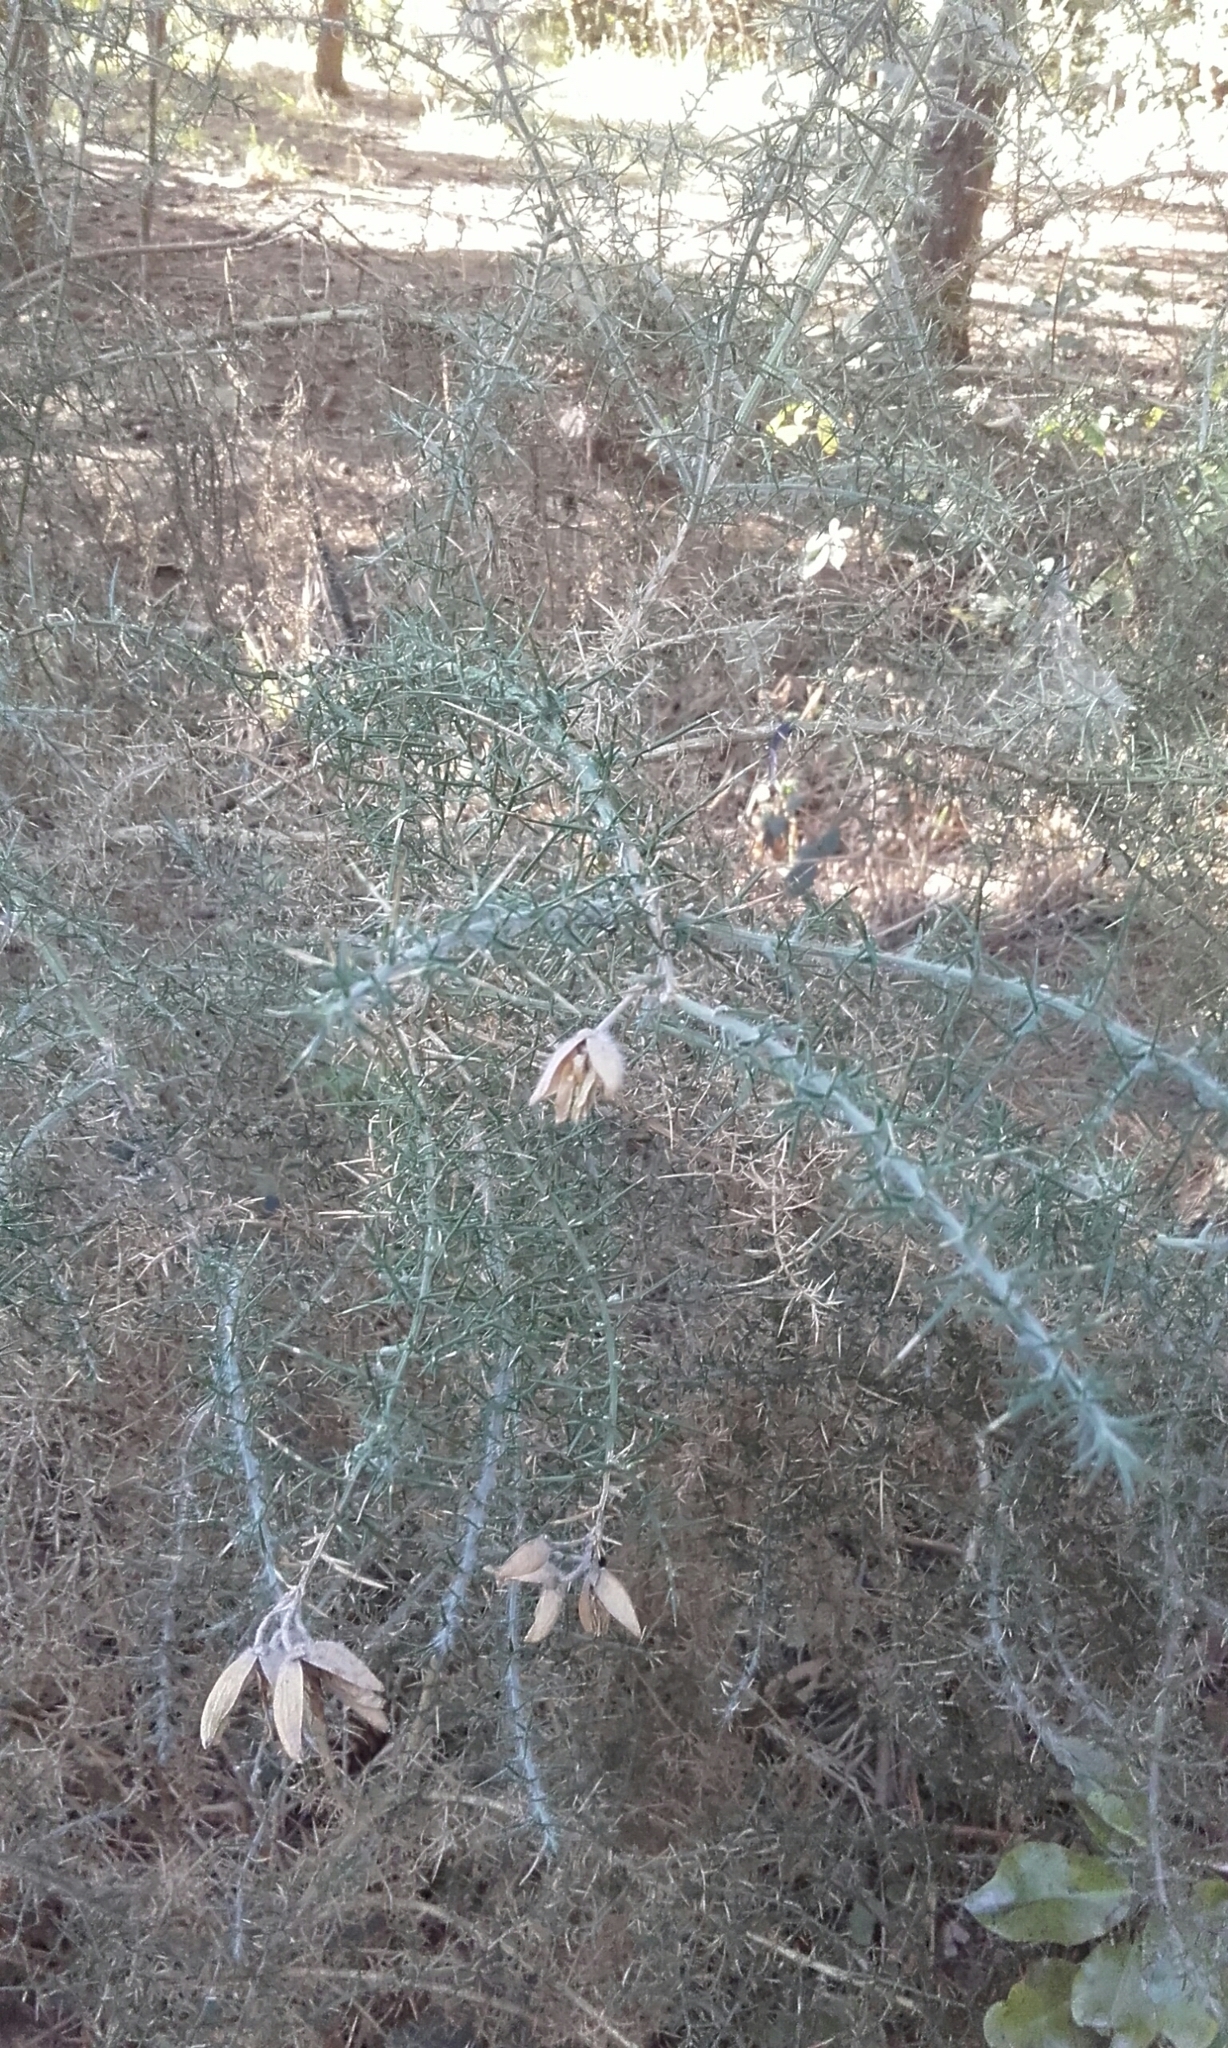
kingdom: Plantae
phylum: Tracheophyta
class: Magnoliopsida
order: Fabales
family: Fabaceae
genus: Ulex
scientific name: Ulex europaeus
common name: Common gorse
